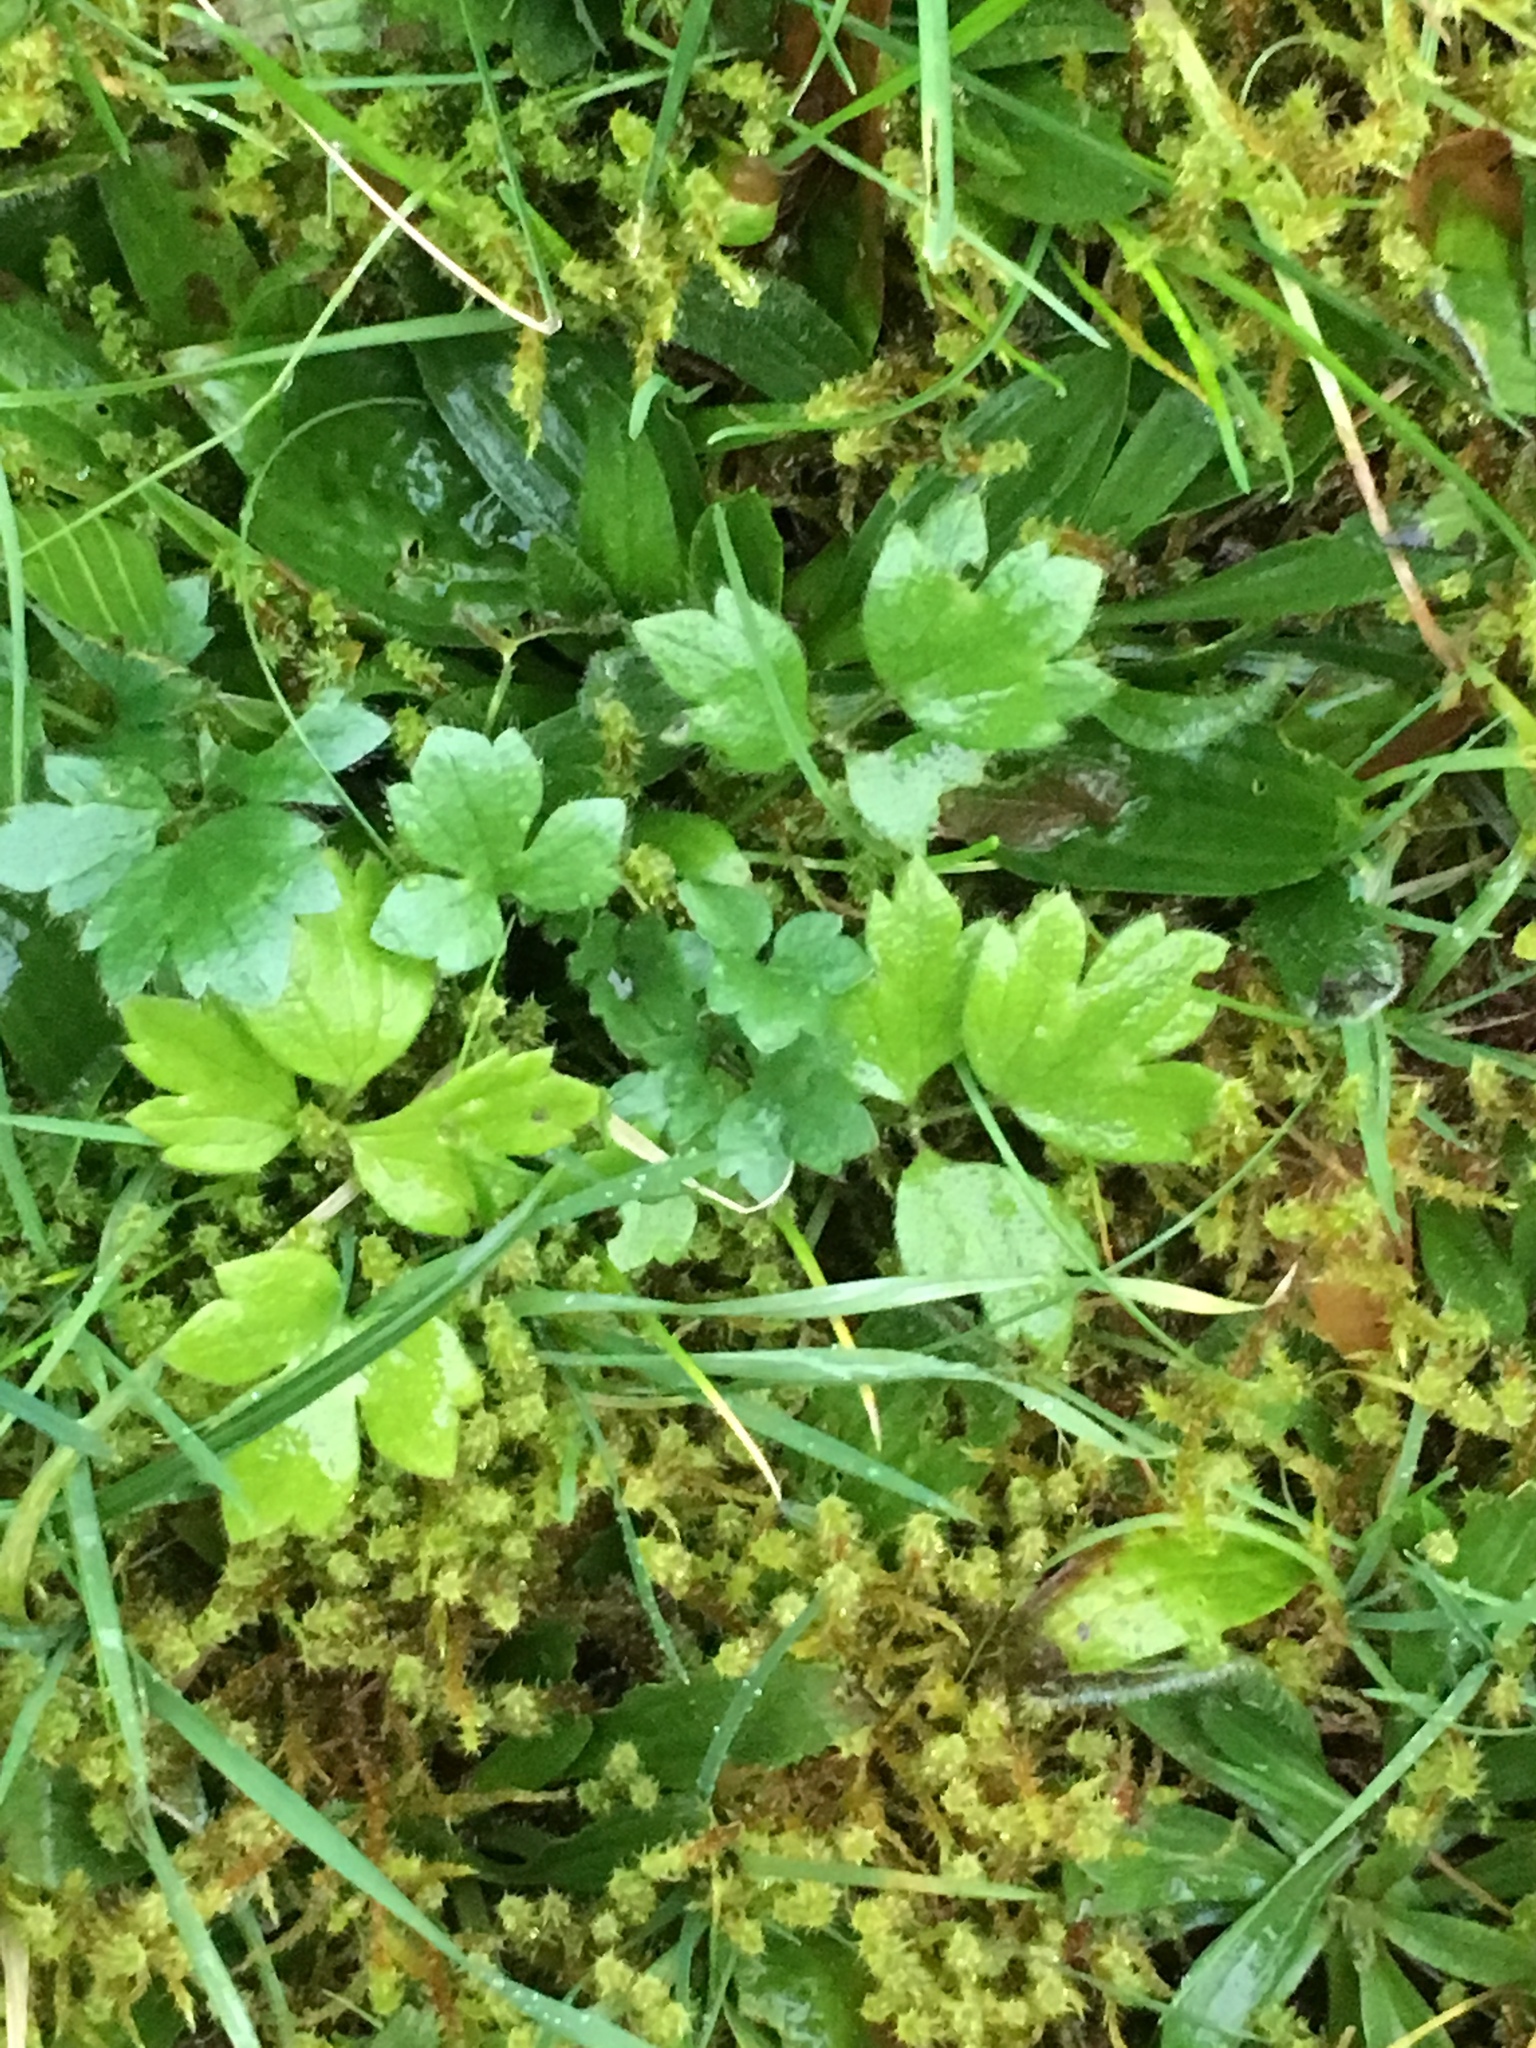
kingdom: Plantae
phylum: Tracheophyta
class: Magnoliopsida
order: Ranunculales
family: Ranunculaceae
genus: Ranunculus
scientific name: Ranunculus repens
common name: Creeping buttercup
